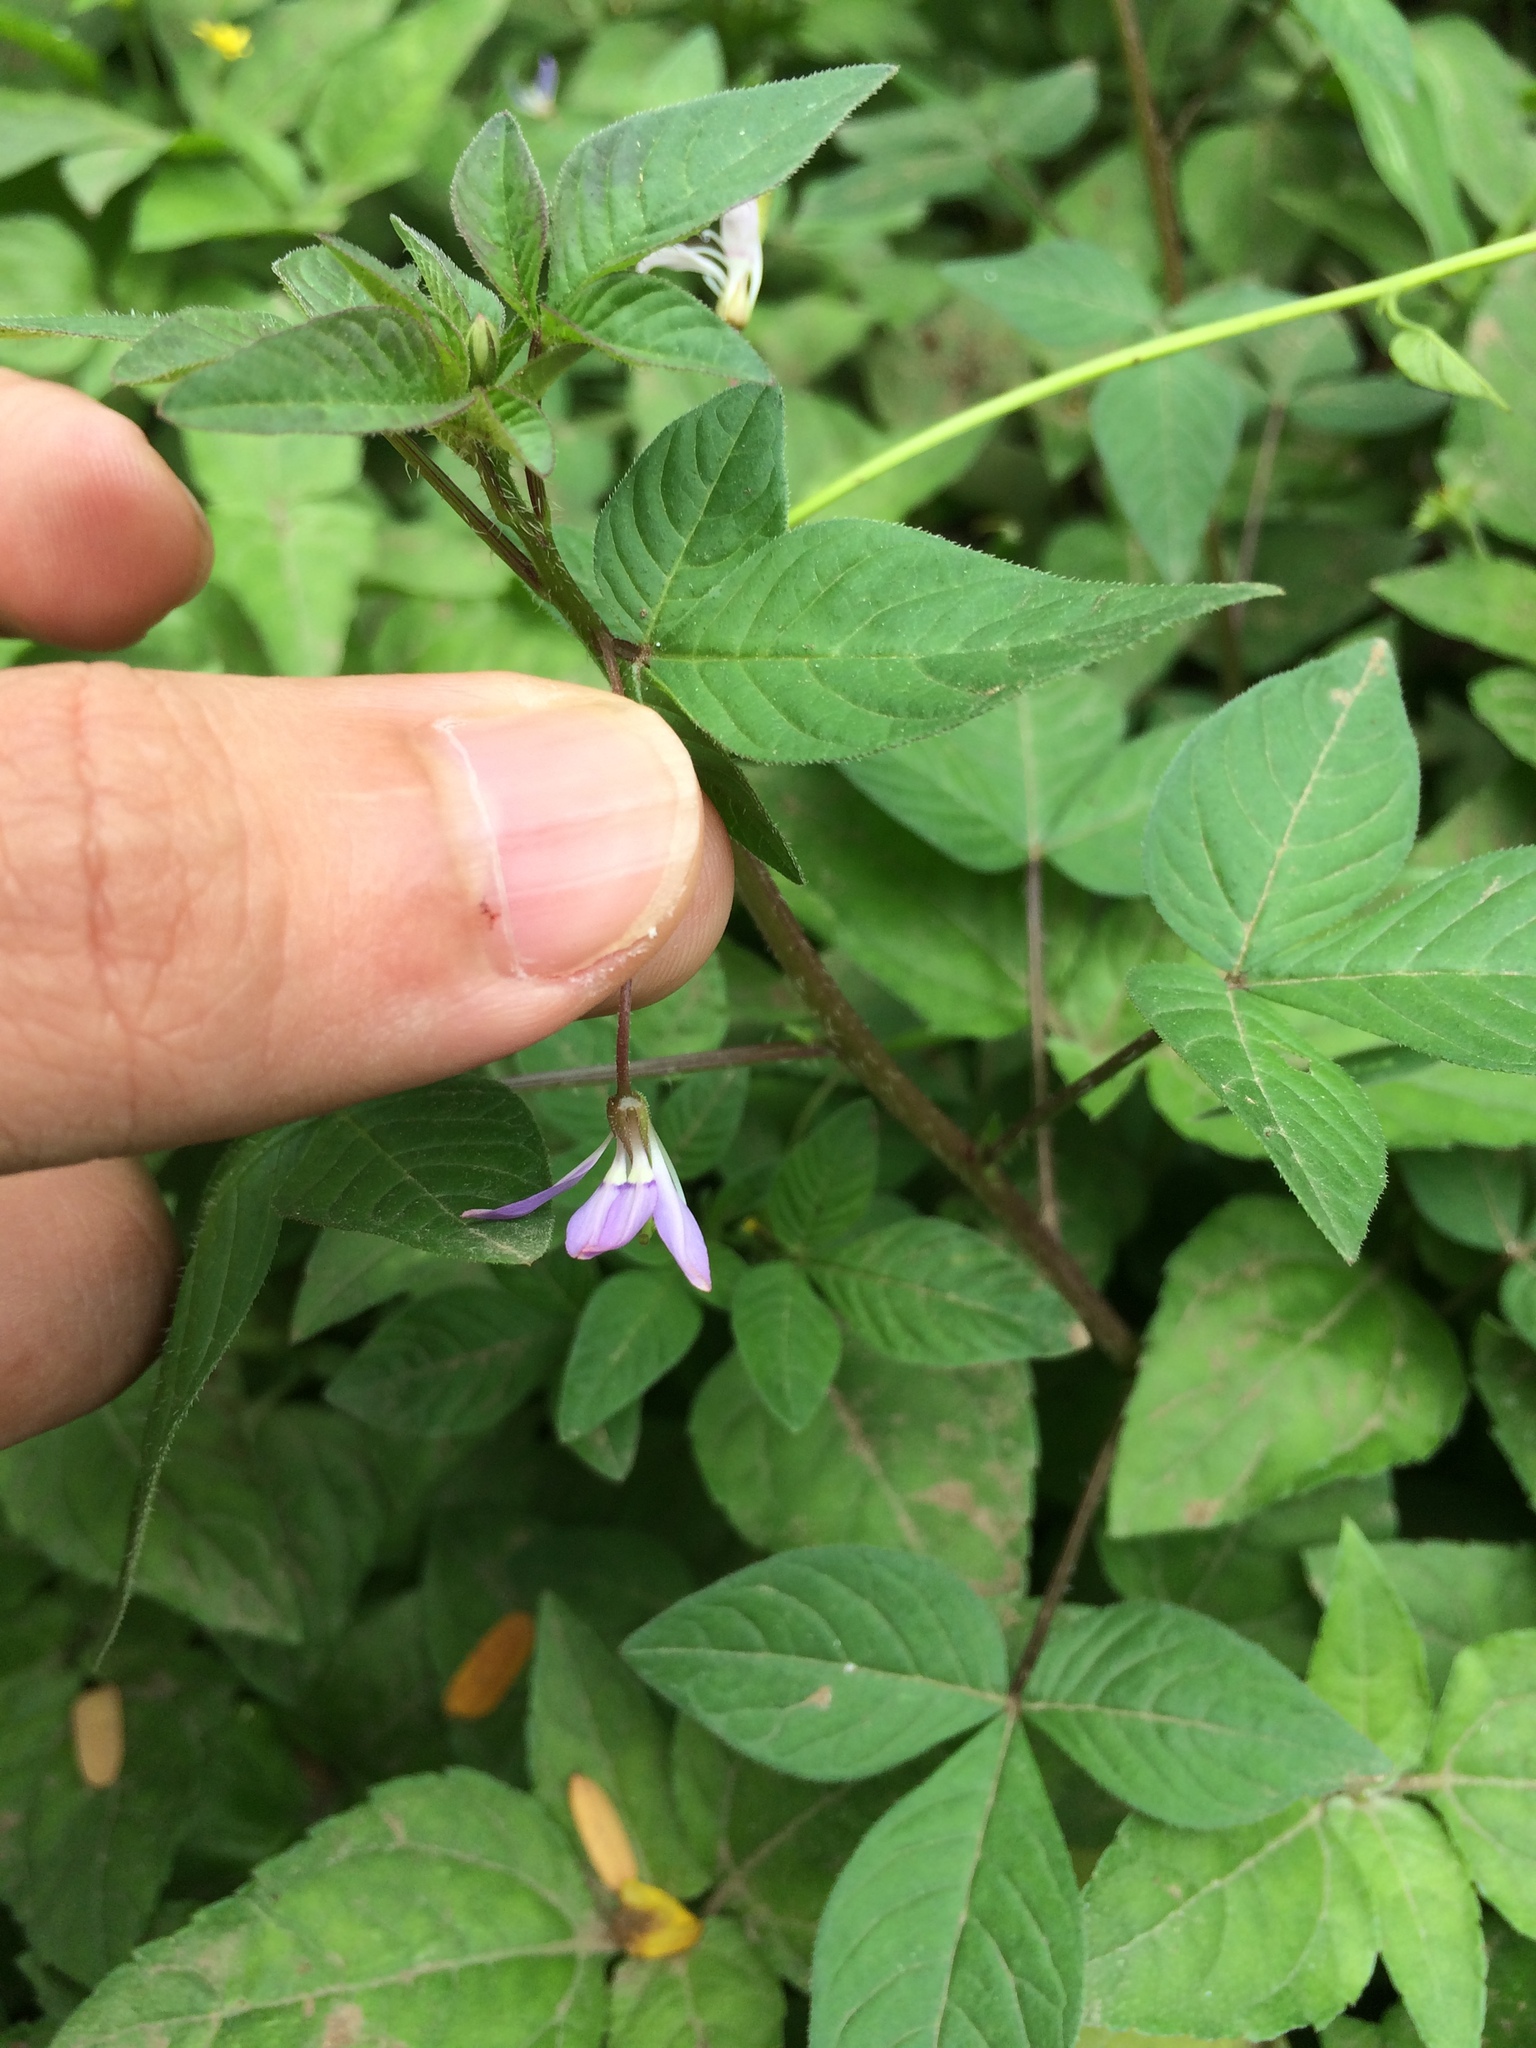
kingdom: Plantae
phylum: Tracheophyta
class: Magnoliopsida
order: Brassicales
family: Cleomaceae
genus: Sieruela
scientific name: Sieruela rutidosperma
